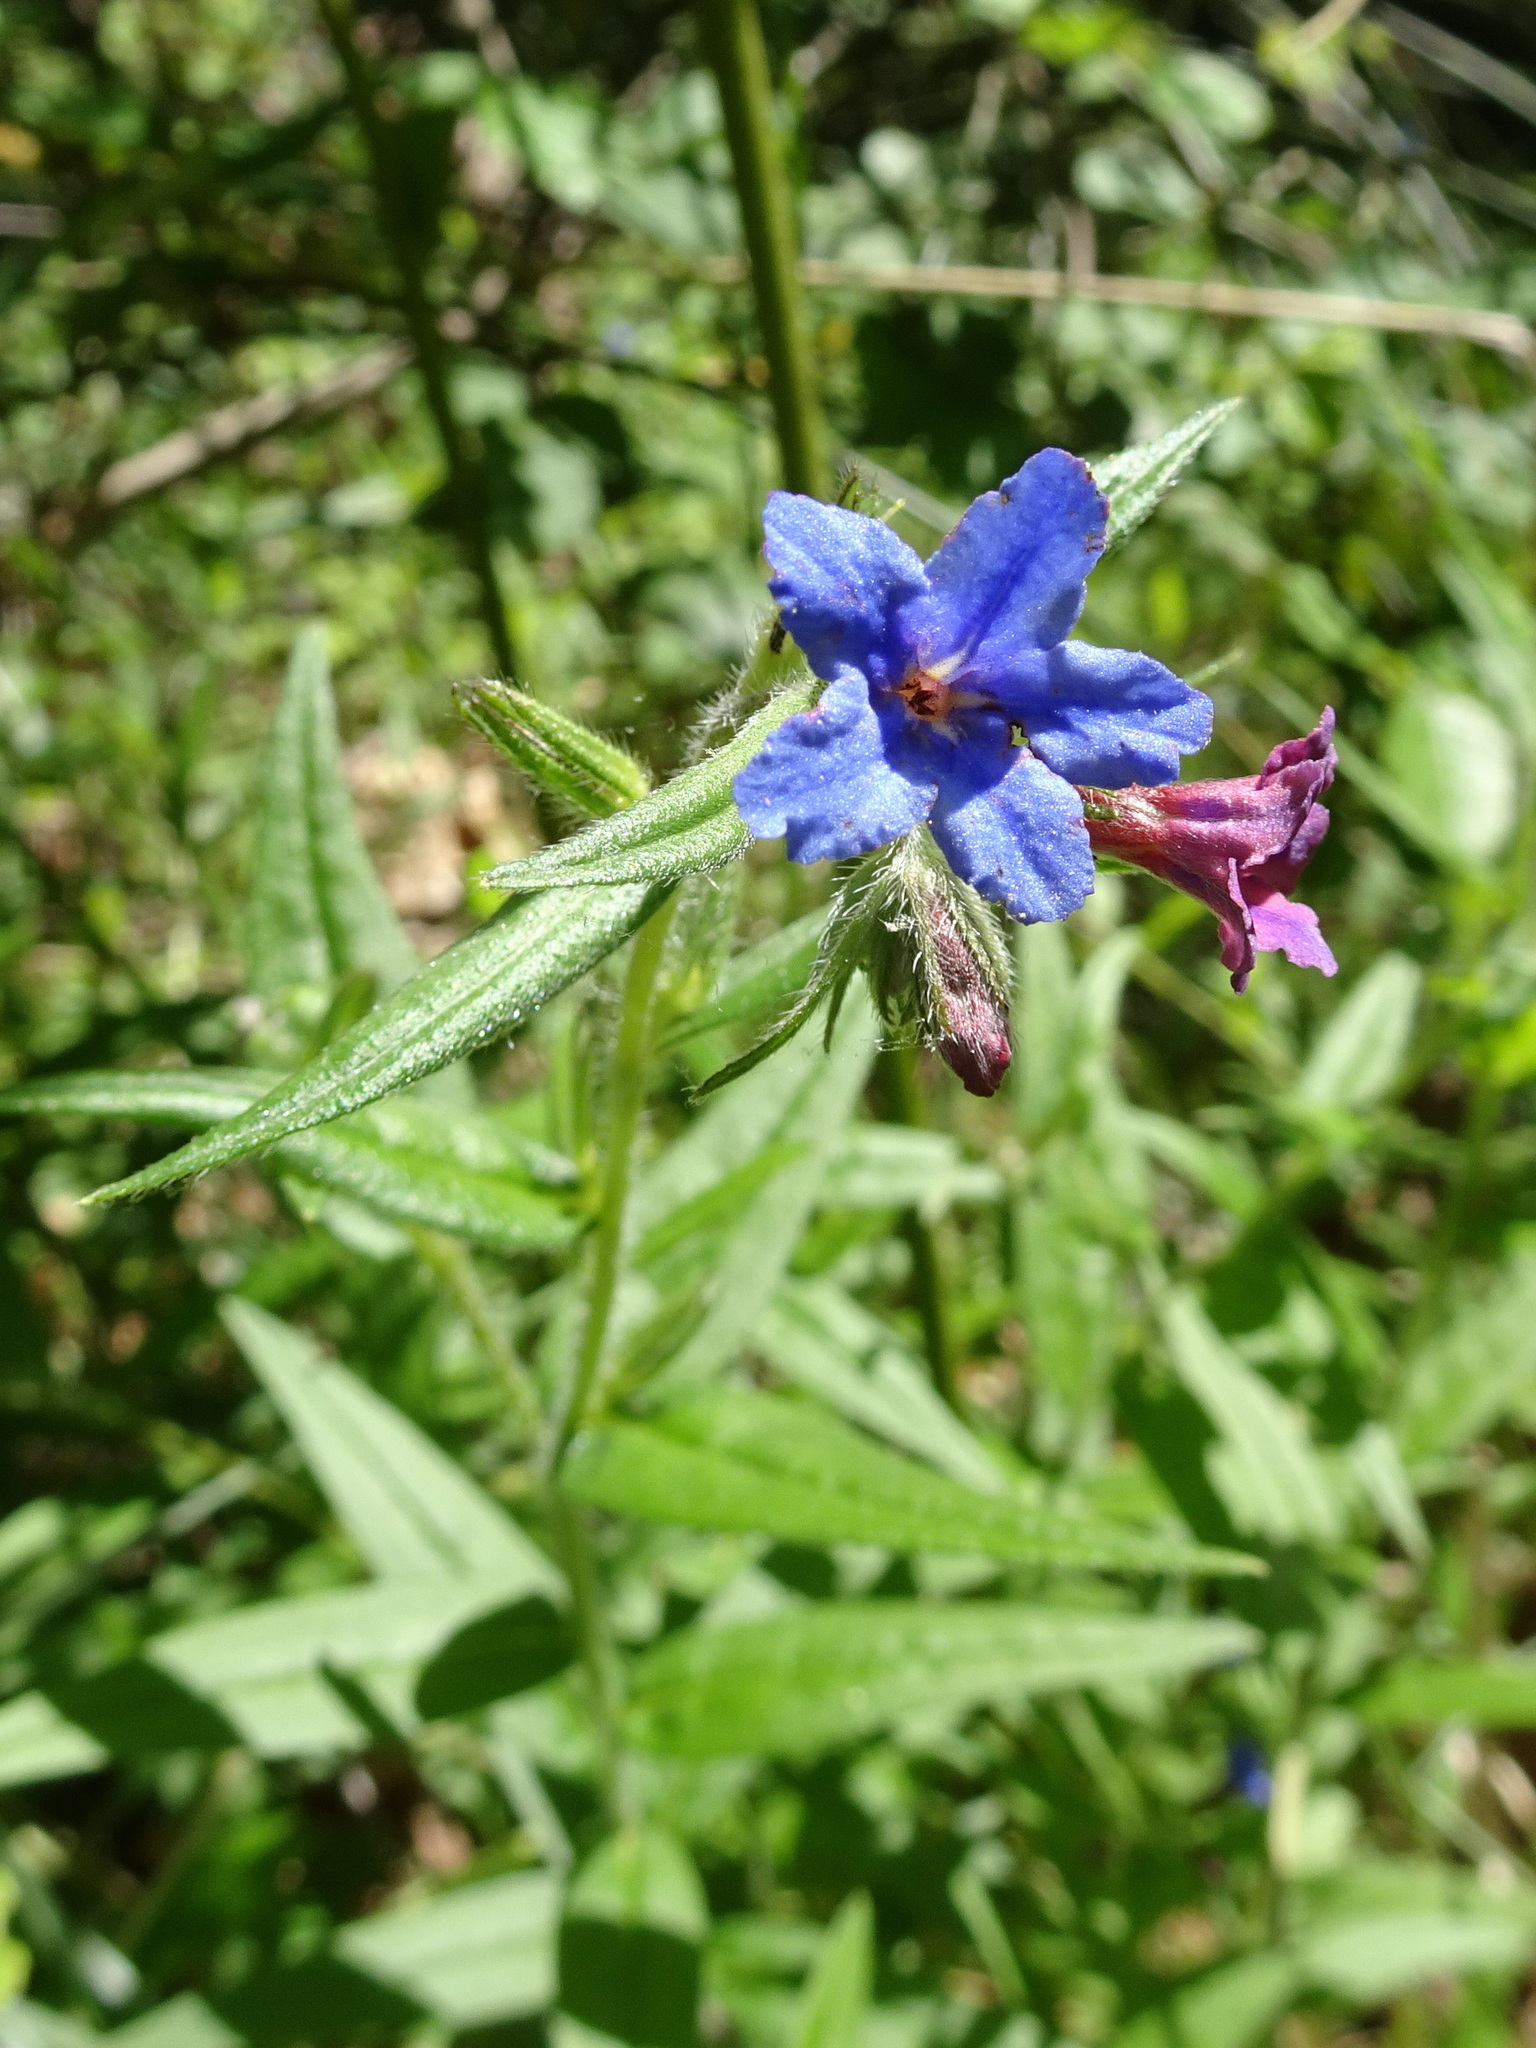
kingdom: Plantae
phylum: Tracheophyta
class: Magnoliopsida
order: Boraginales
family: Boraginaceae
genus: Aegonychon
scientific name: Aegonychon purpurocaeruleum
